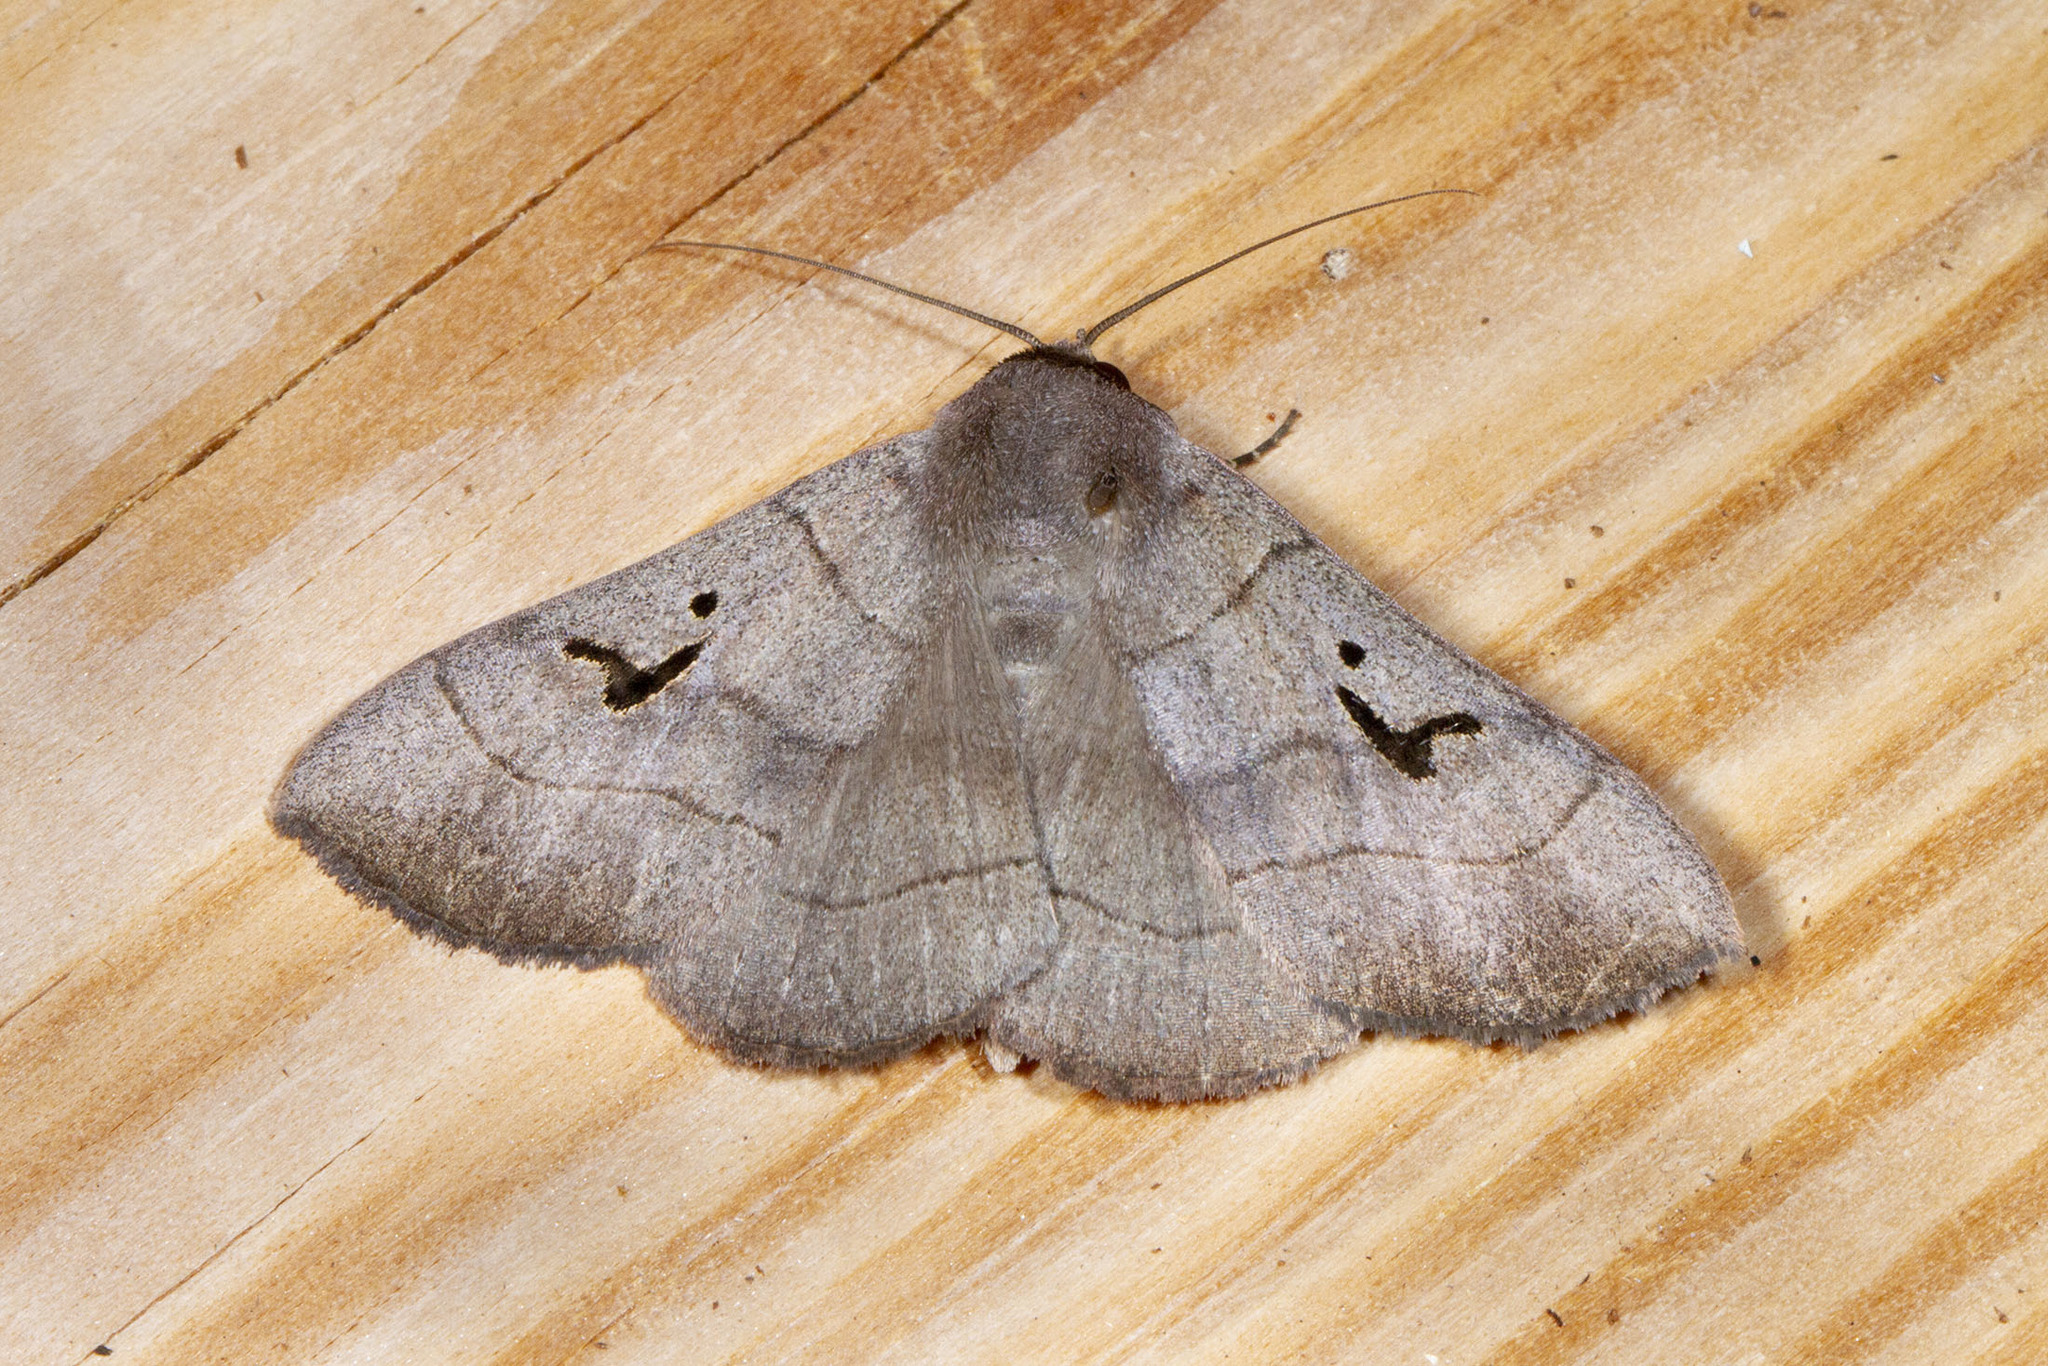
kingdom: Animalia
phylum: Arthropoda
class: Insecta
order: Lepidoptera
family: Erebidae
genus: Panopoda
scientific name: Panopoda carneicosta
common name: Brown panopoda moth
